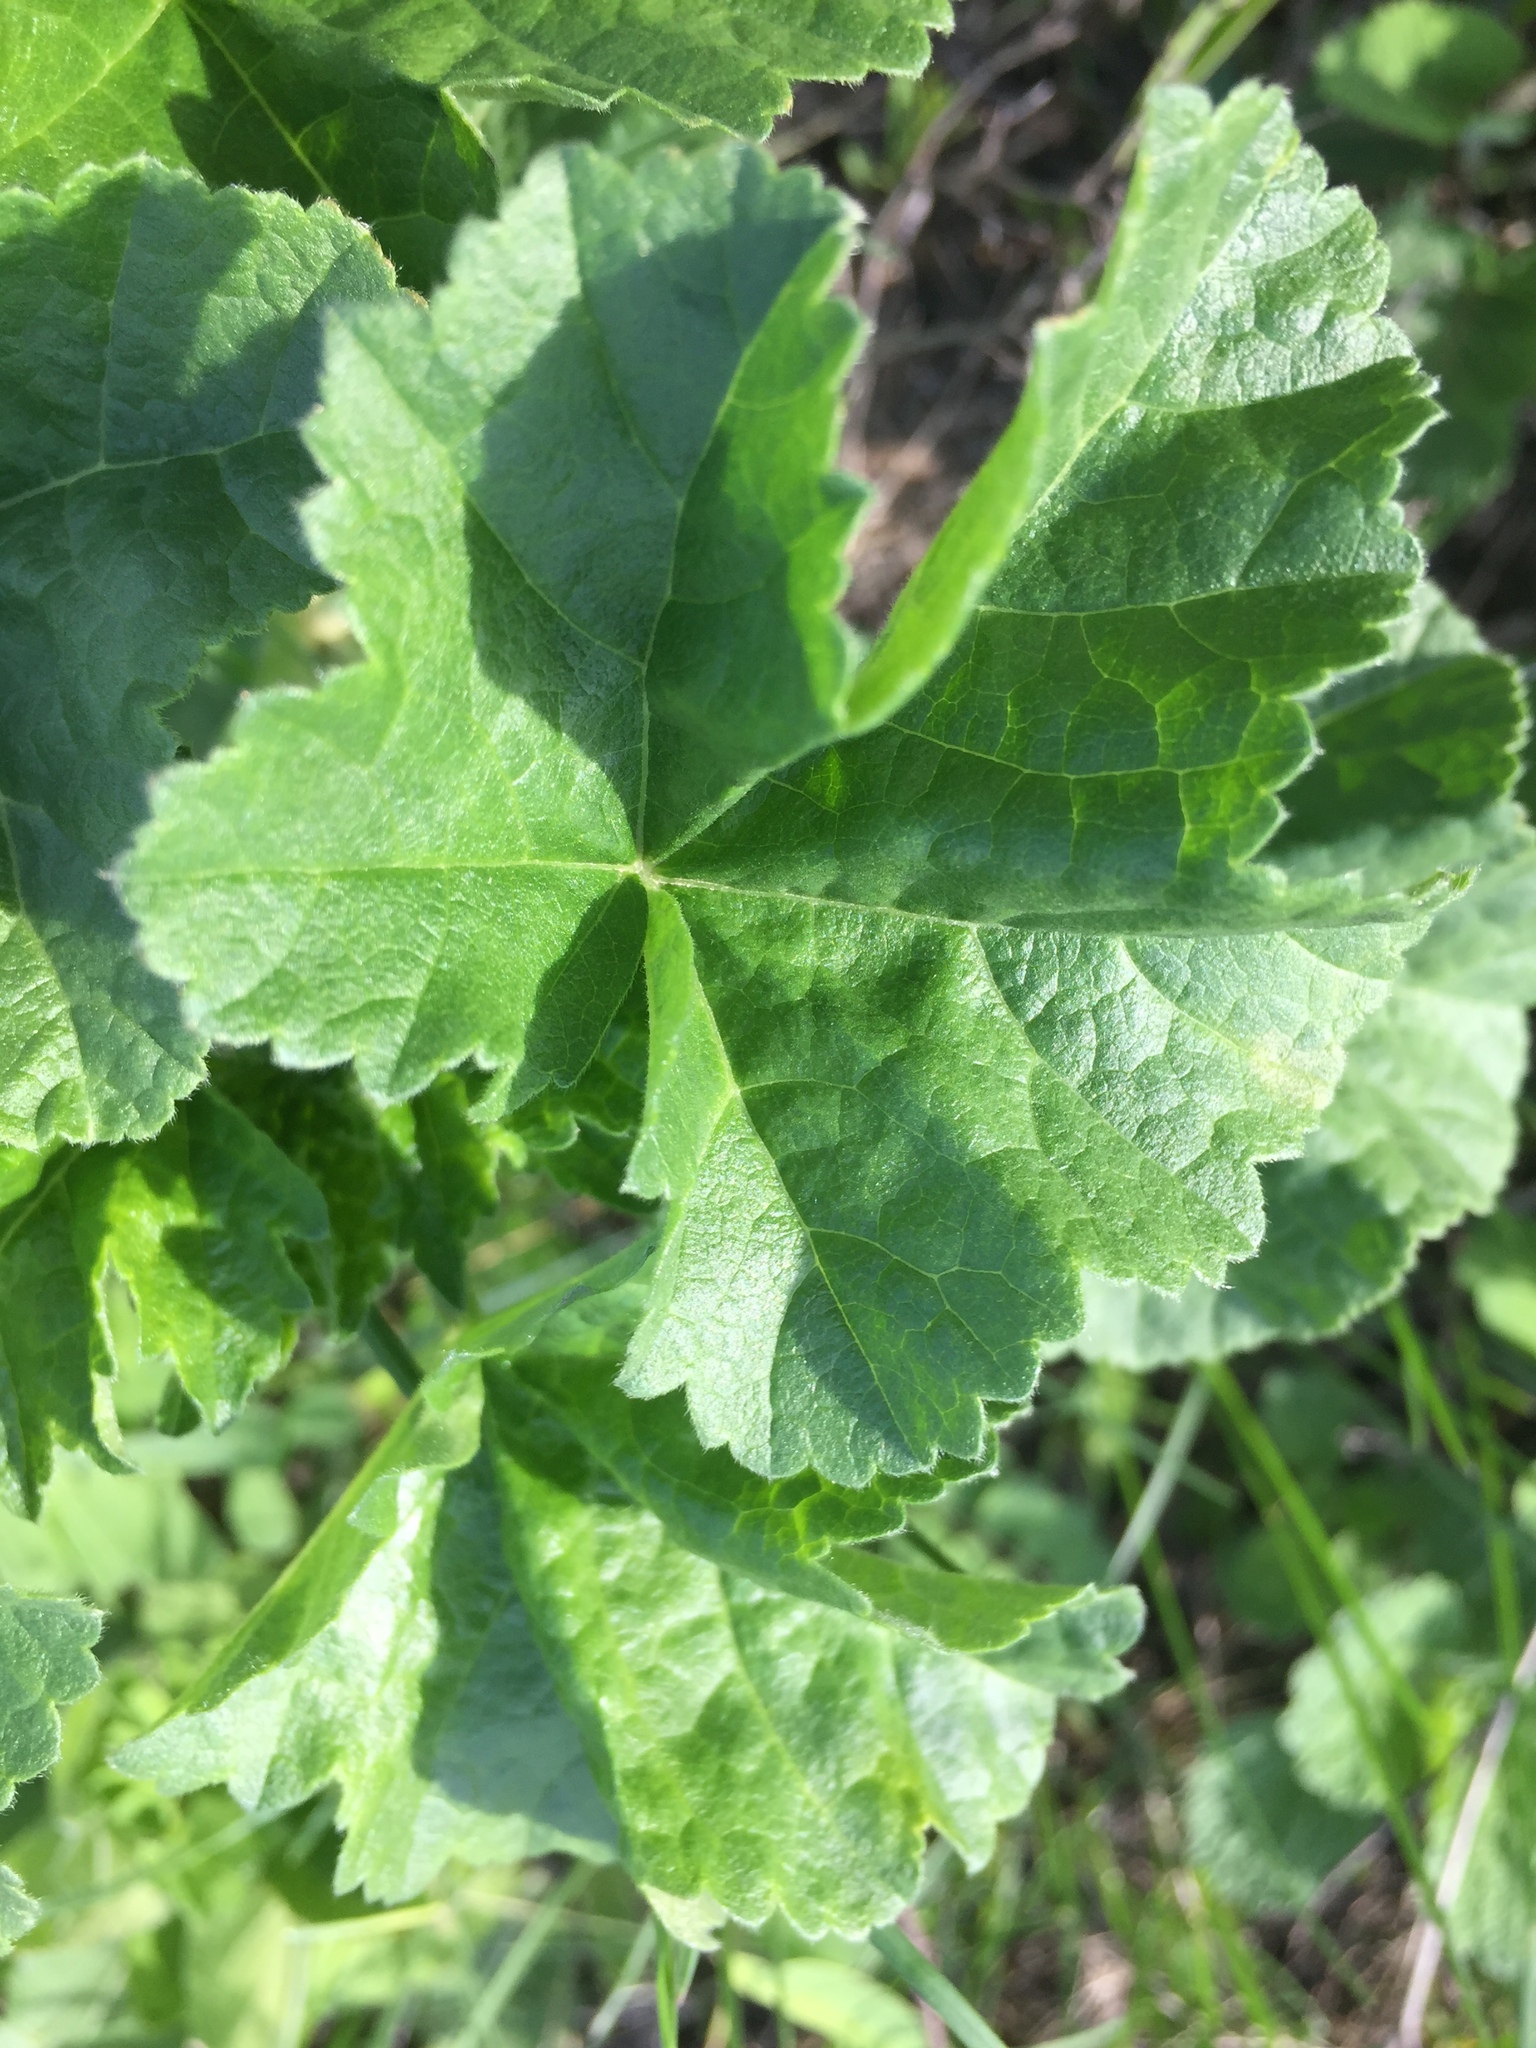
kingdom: Plantae
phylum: Tracheophyta
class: Magnoliopsida
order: Malvales
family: Malvaceae
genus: Malva
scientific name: Malva thuringiaca
